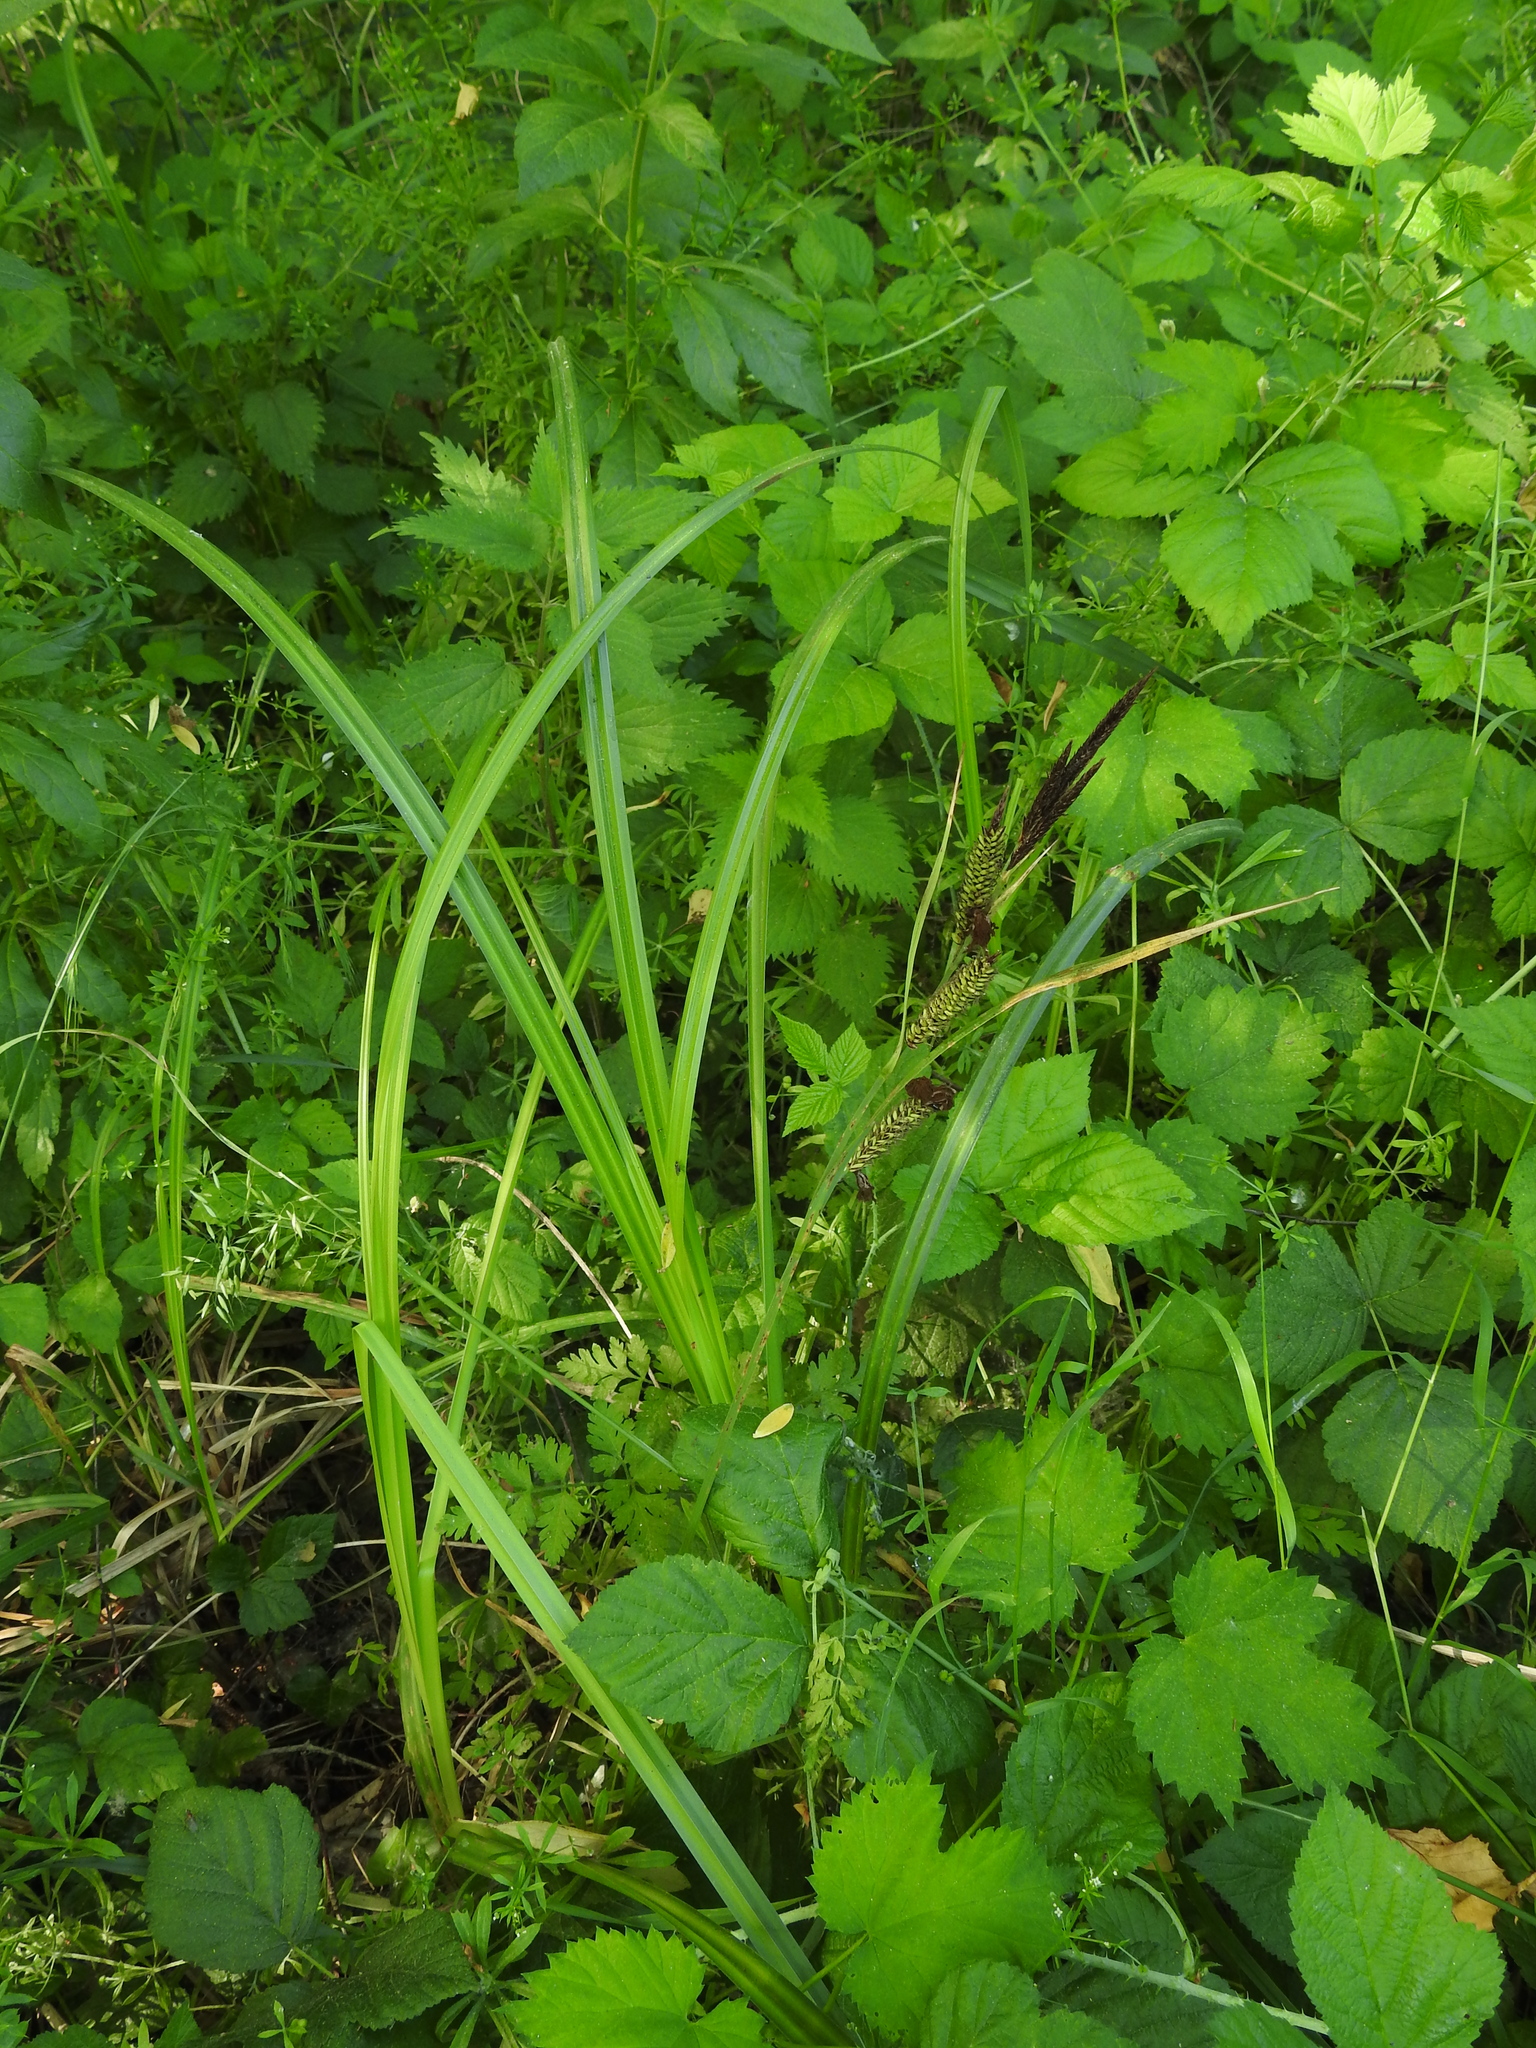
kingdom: Plantae
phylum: Tracheophyta
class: Liliopsida
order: Poales
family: Cyperaceae
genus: Carex
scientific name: Carex riparia
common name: Greater pond-sedge
